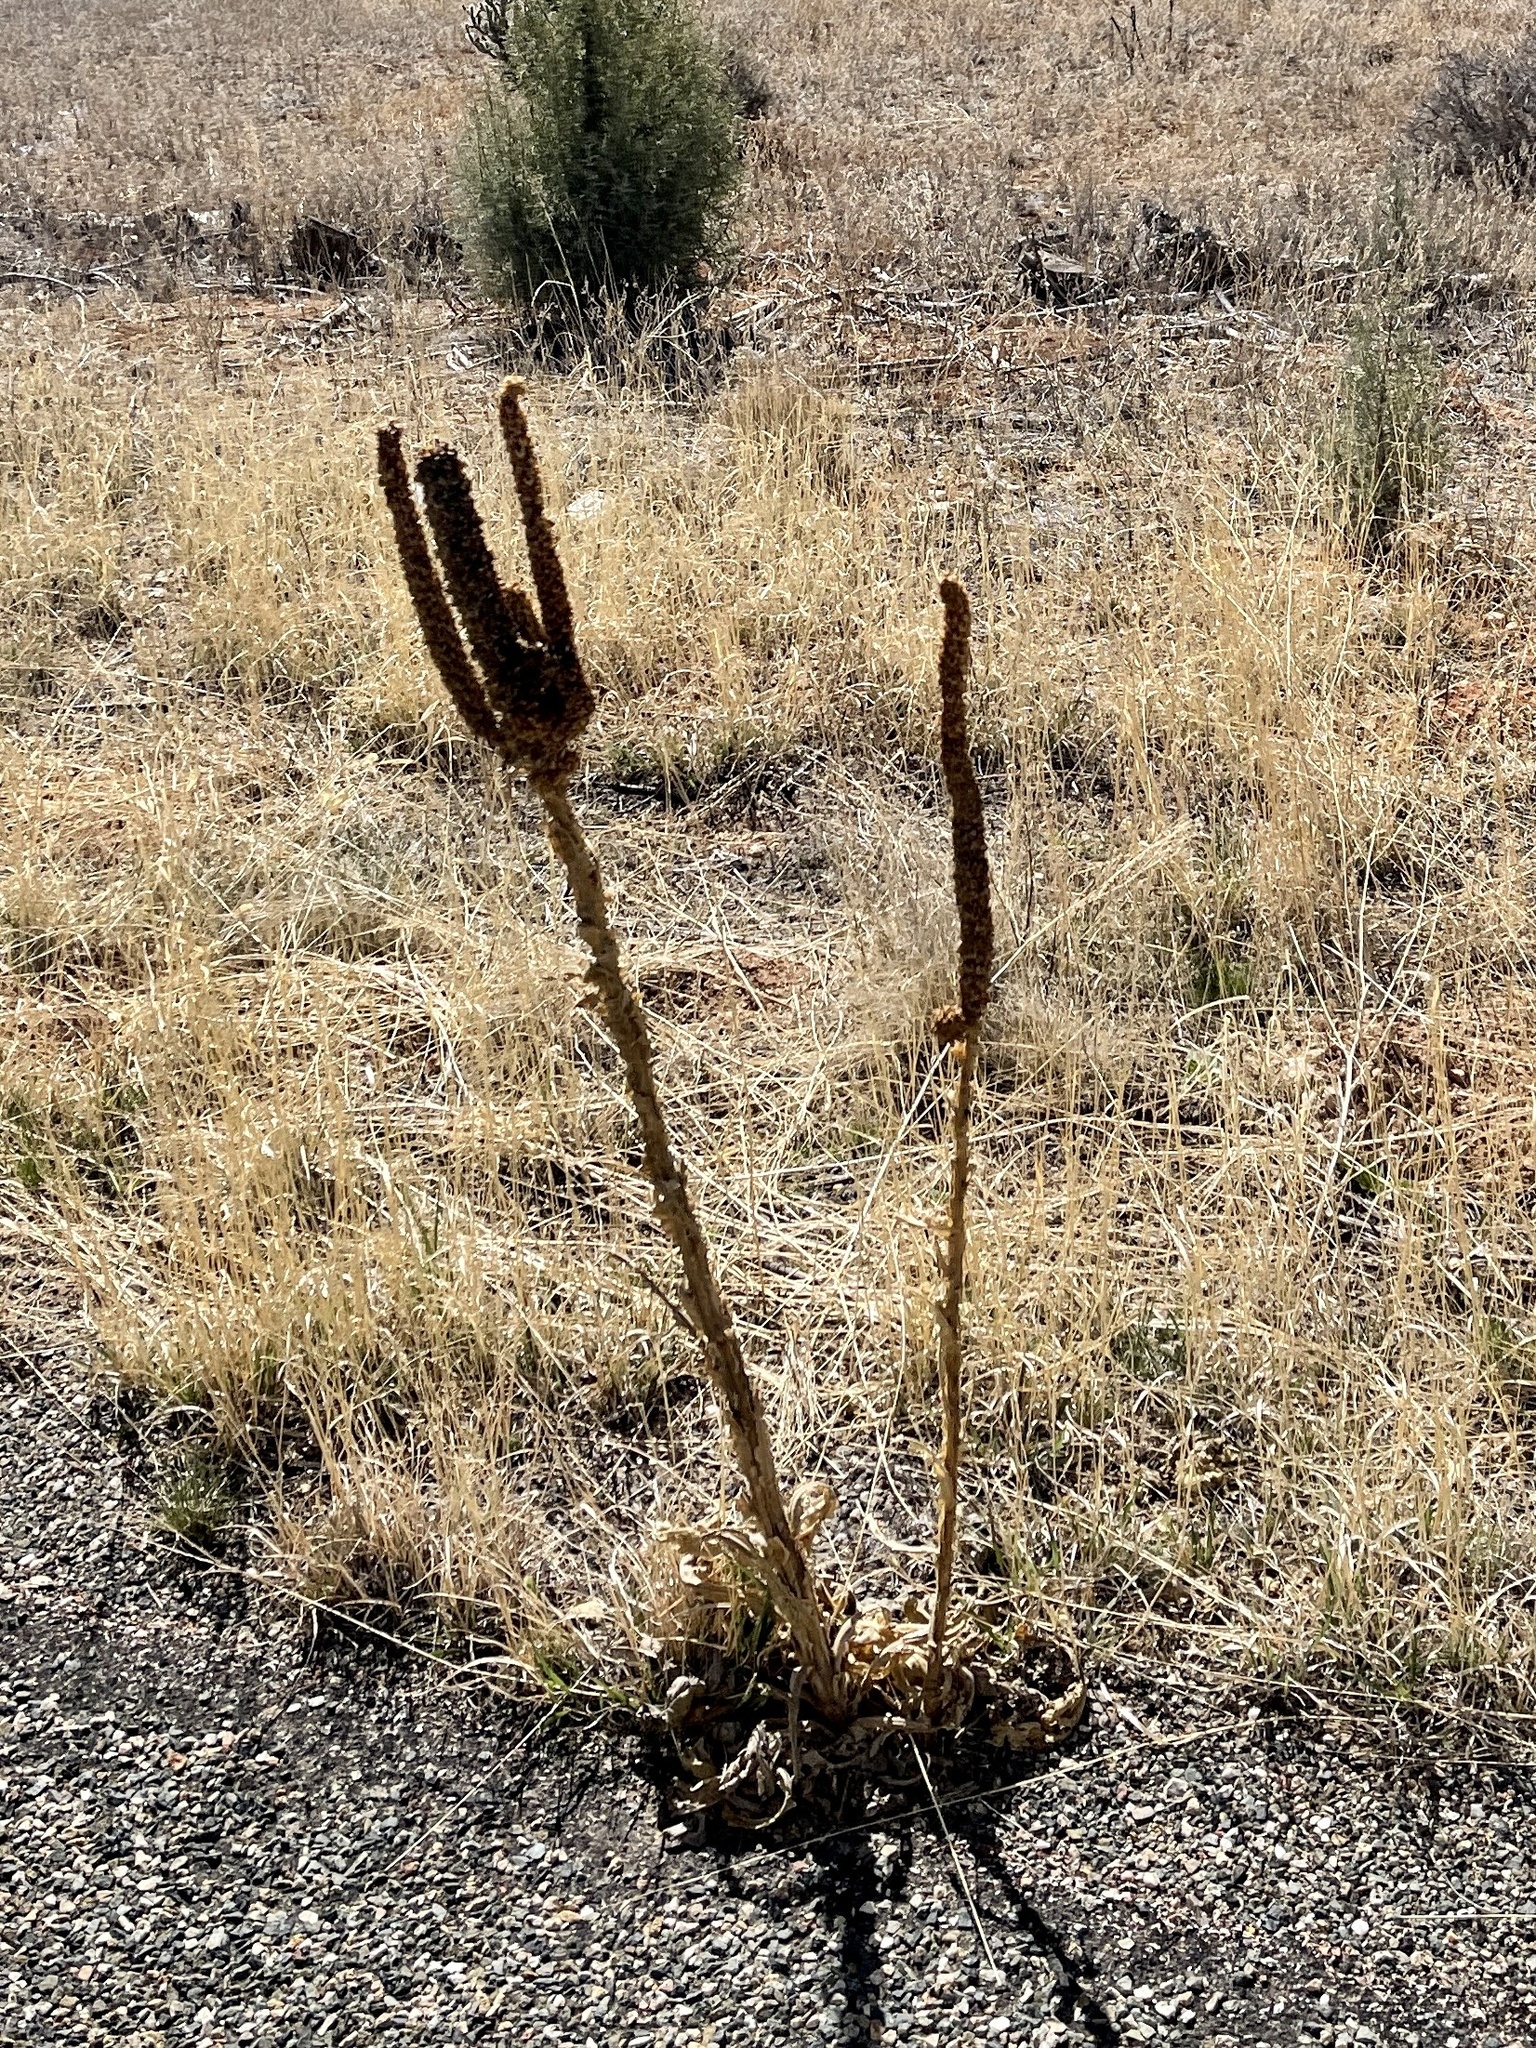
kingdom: Plantae
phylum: Tracheophyta
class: Magnoliopsida
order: Lamiales
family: Scrophulariaceae
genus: Verbascum
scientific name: Verbascum thapsus
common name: Common mullein
